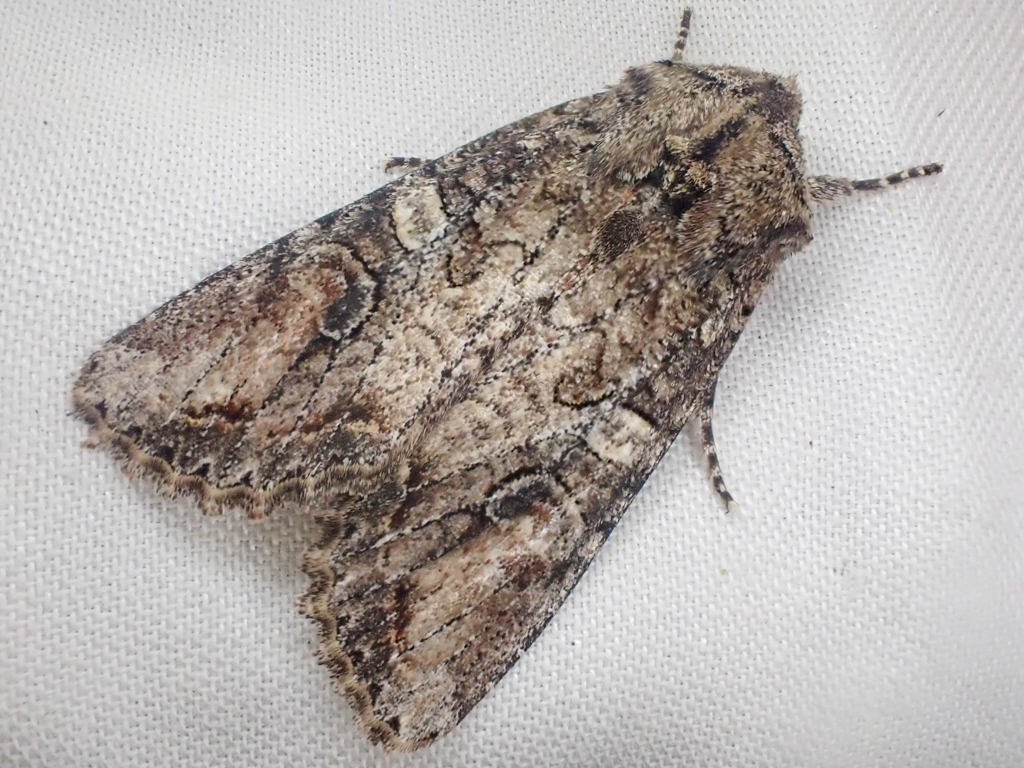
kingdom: Animalia
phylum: Arthropoda
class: Insecta
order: Lepidoptera
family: Noctuidae
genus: Egira
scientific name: Egira perlubens
